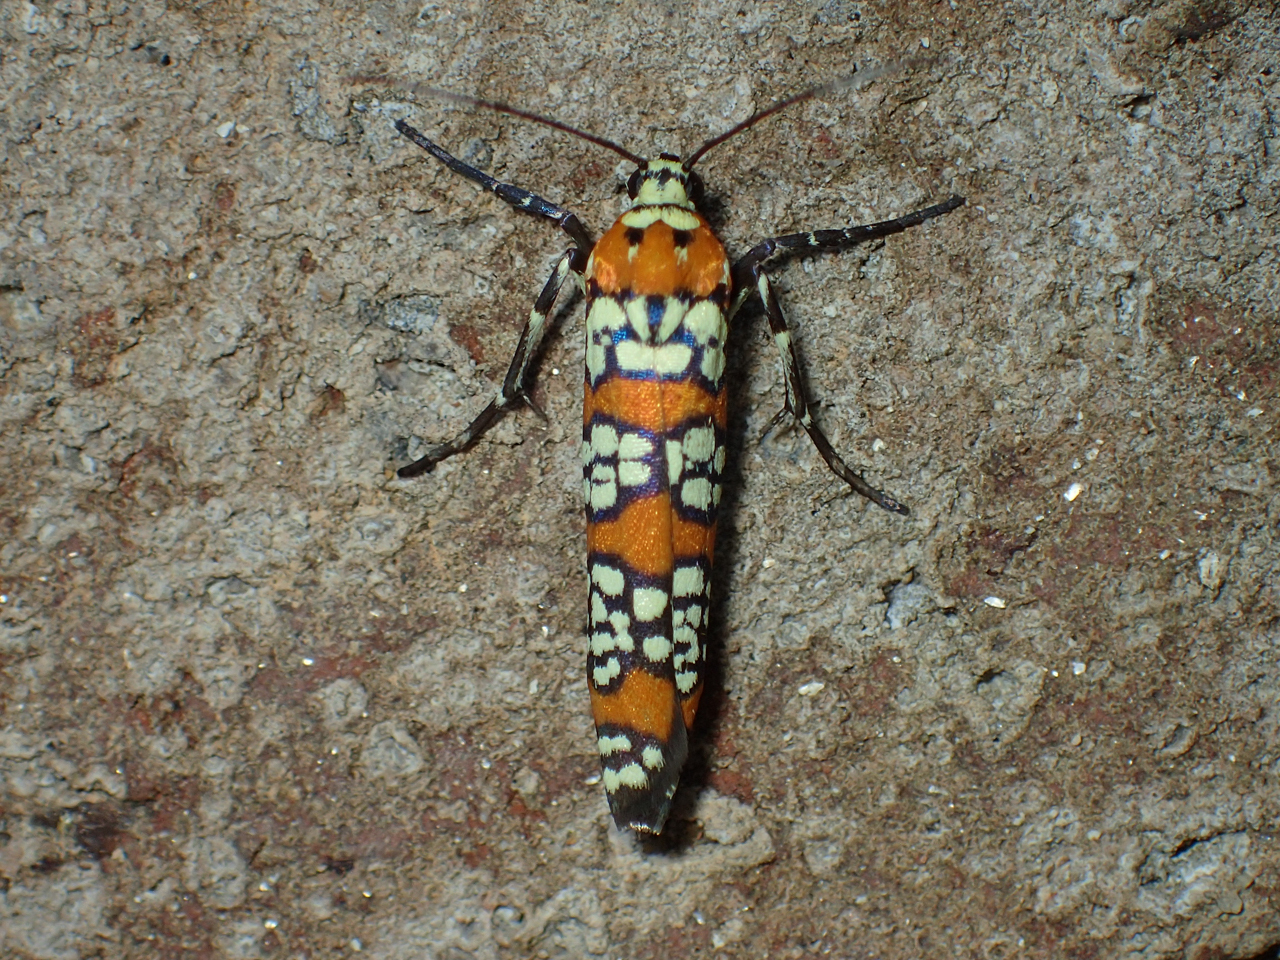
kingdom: Animalia
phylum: Arthropoda
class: Insecta
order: Lepidoptera
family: Attevidae
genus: Atteva
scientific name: Atteva punctella
